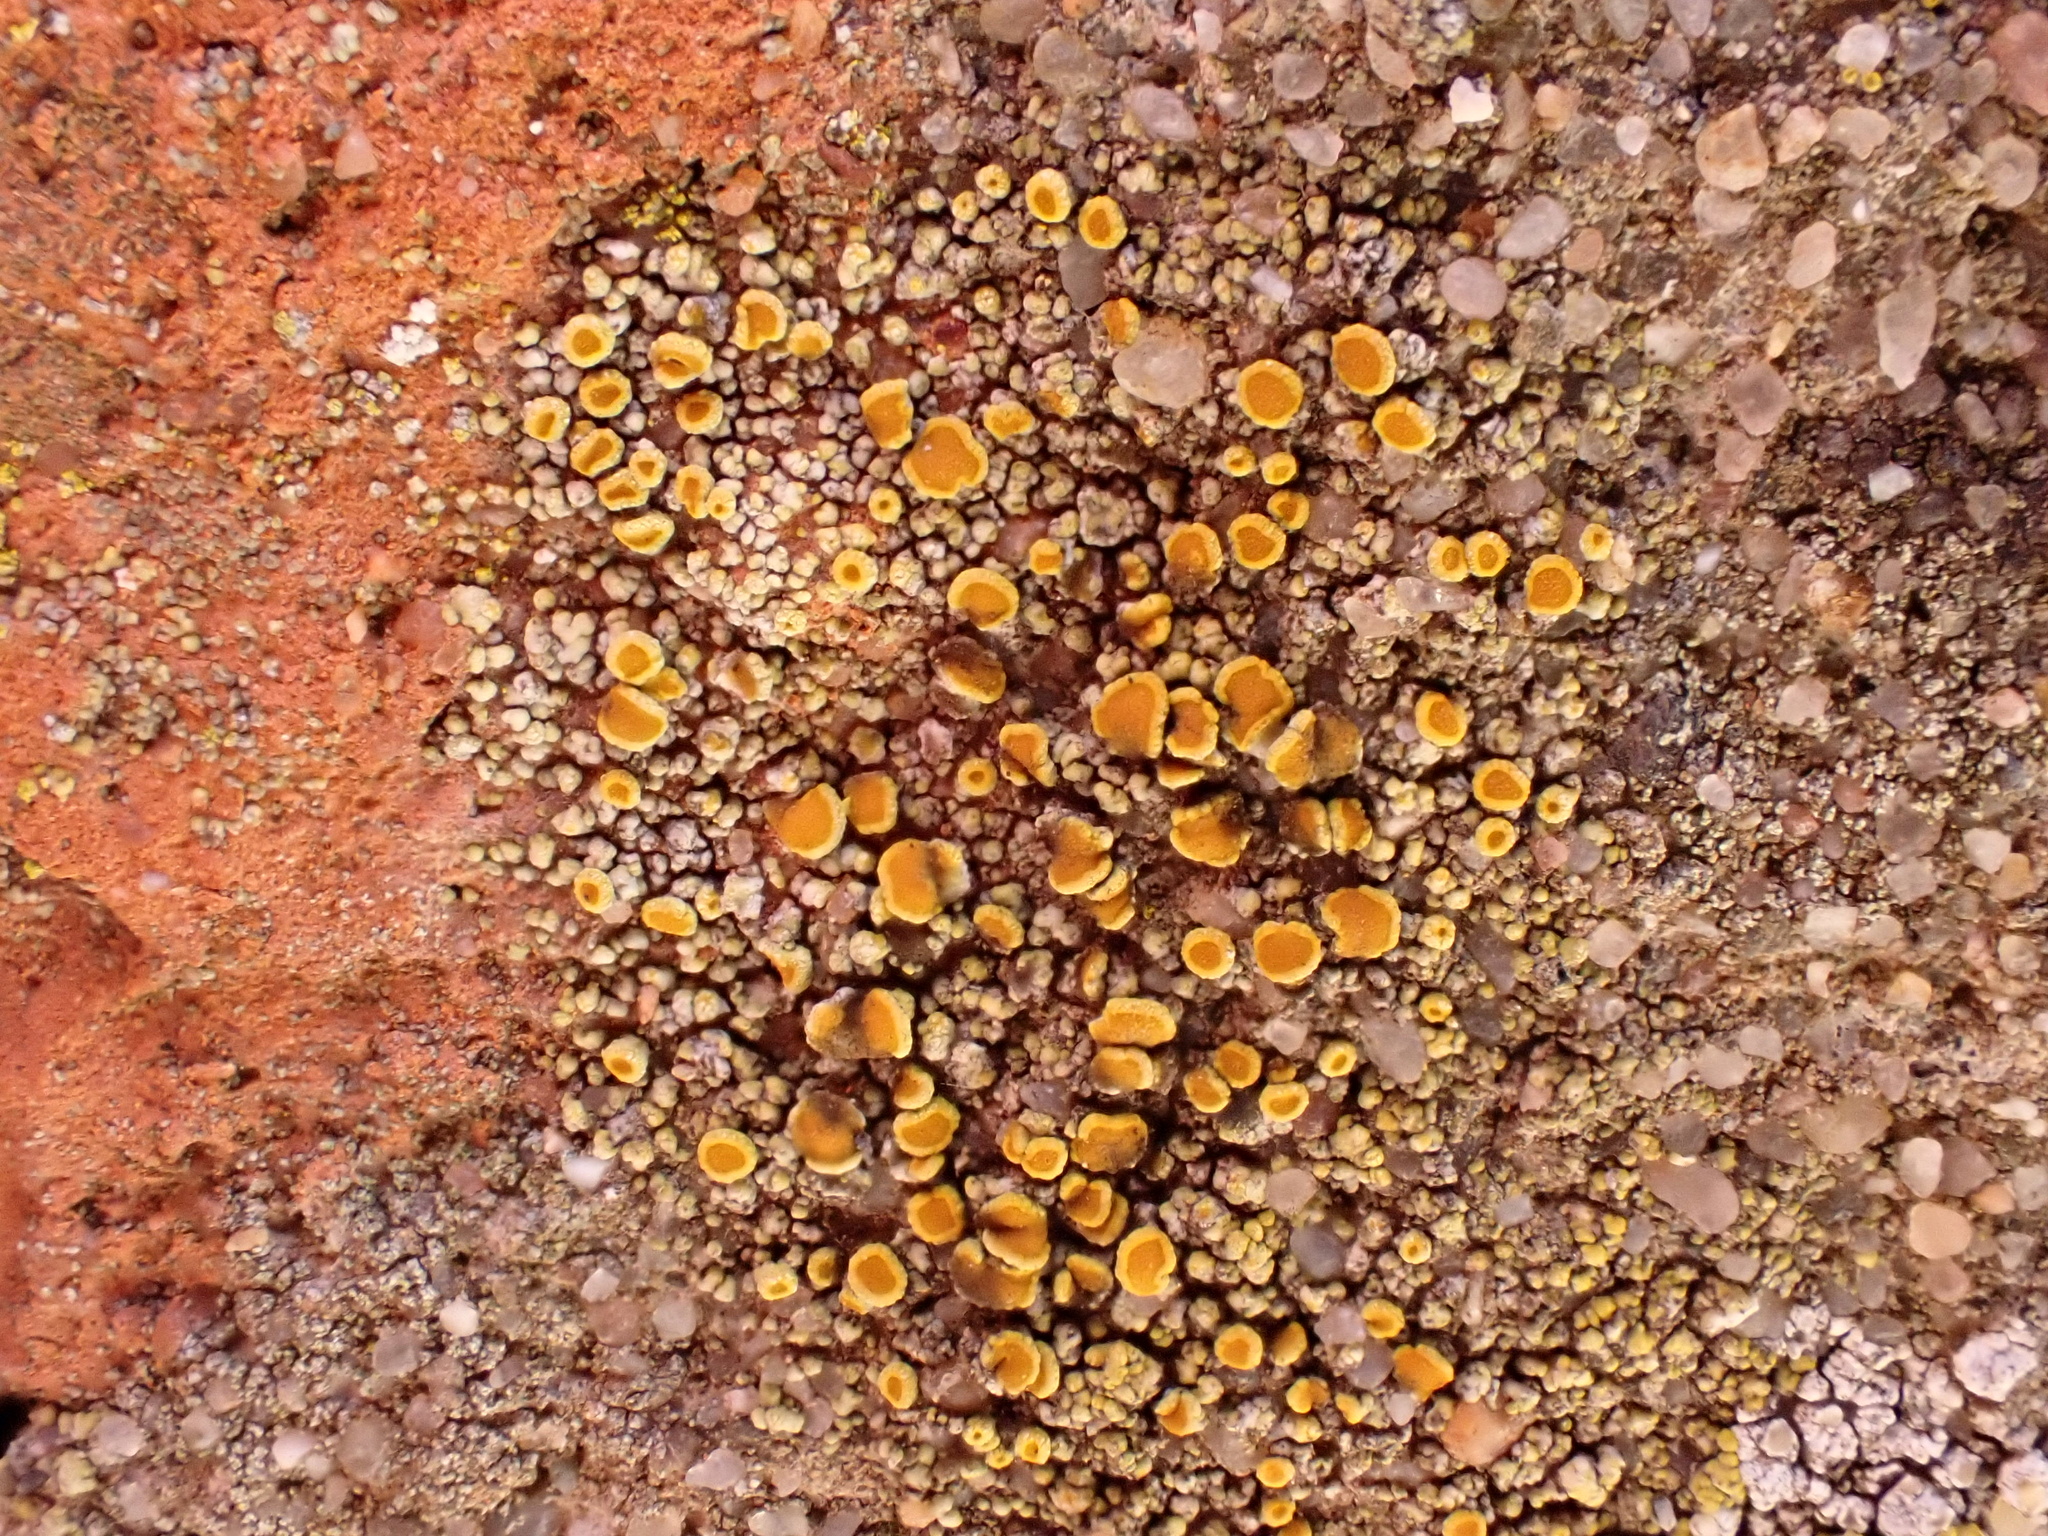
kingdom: Fungi
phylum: Ascomycota
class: Lecanoromycetes
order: Teloschistales
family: Teloschistaceae
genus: Caloplaca
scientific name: Caloplaca ruderum
